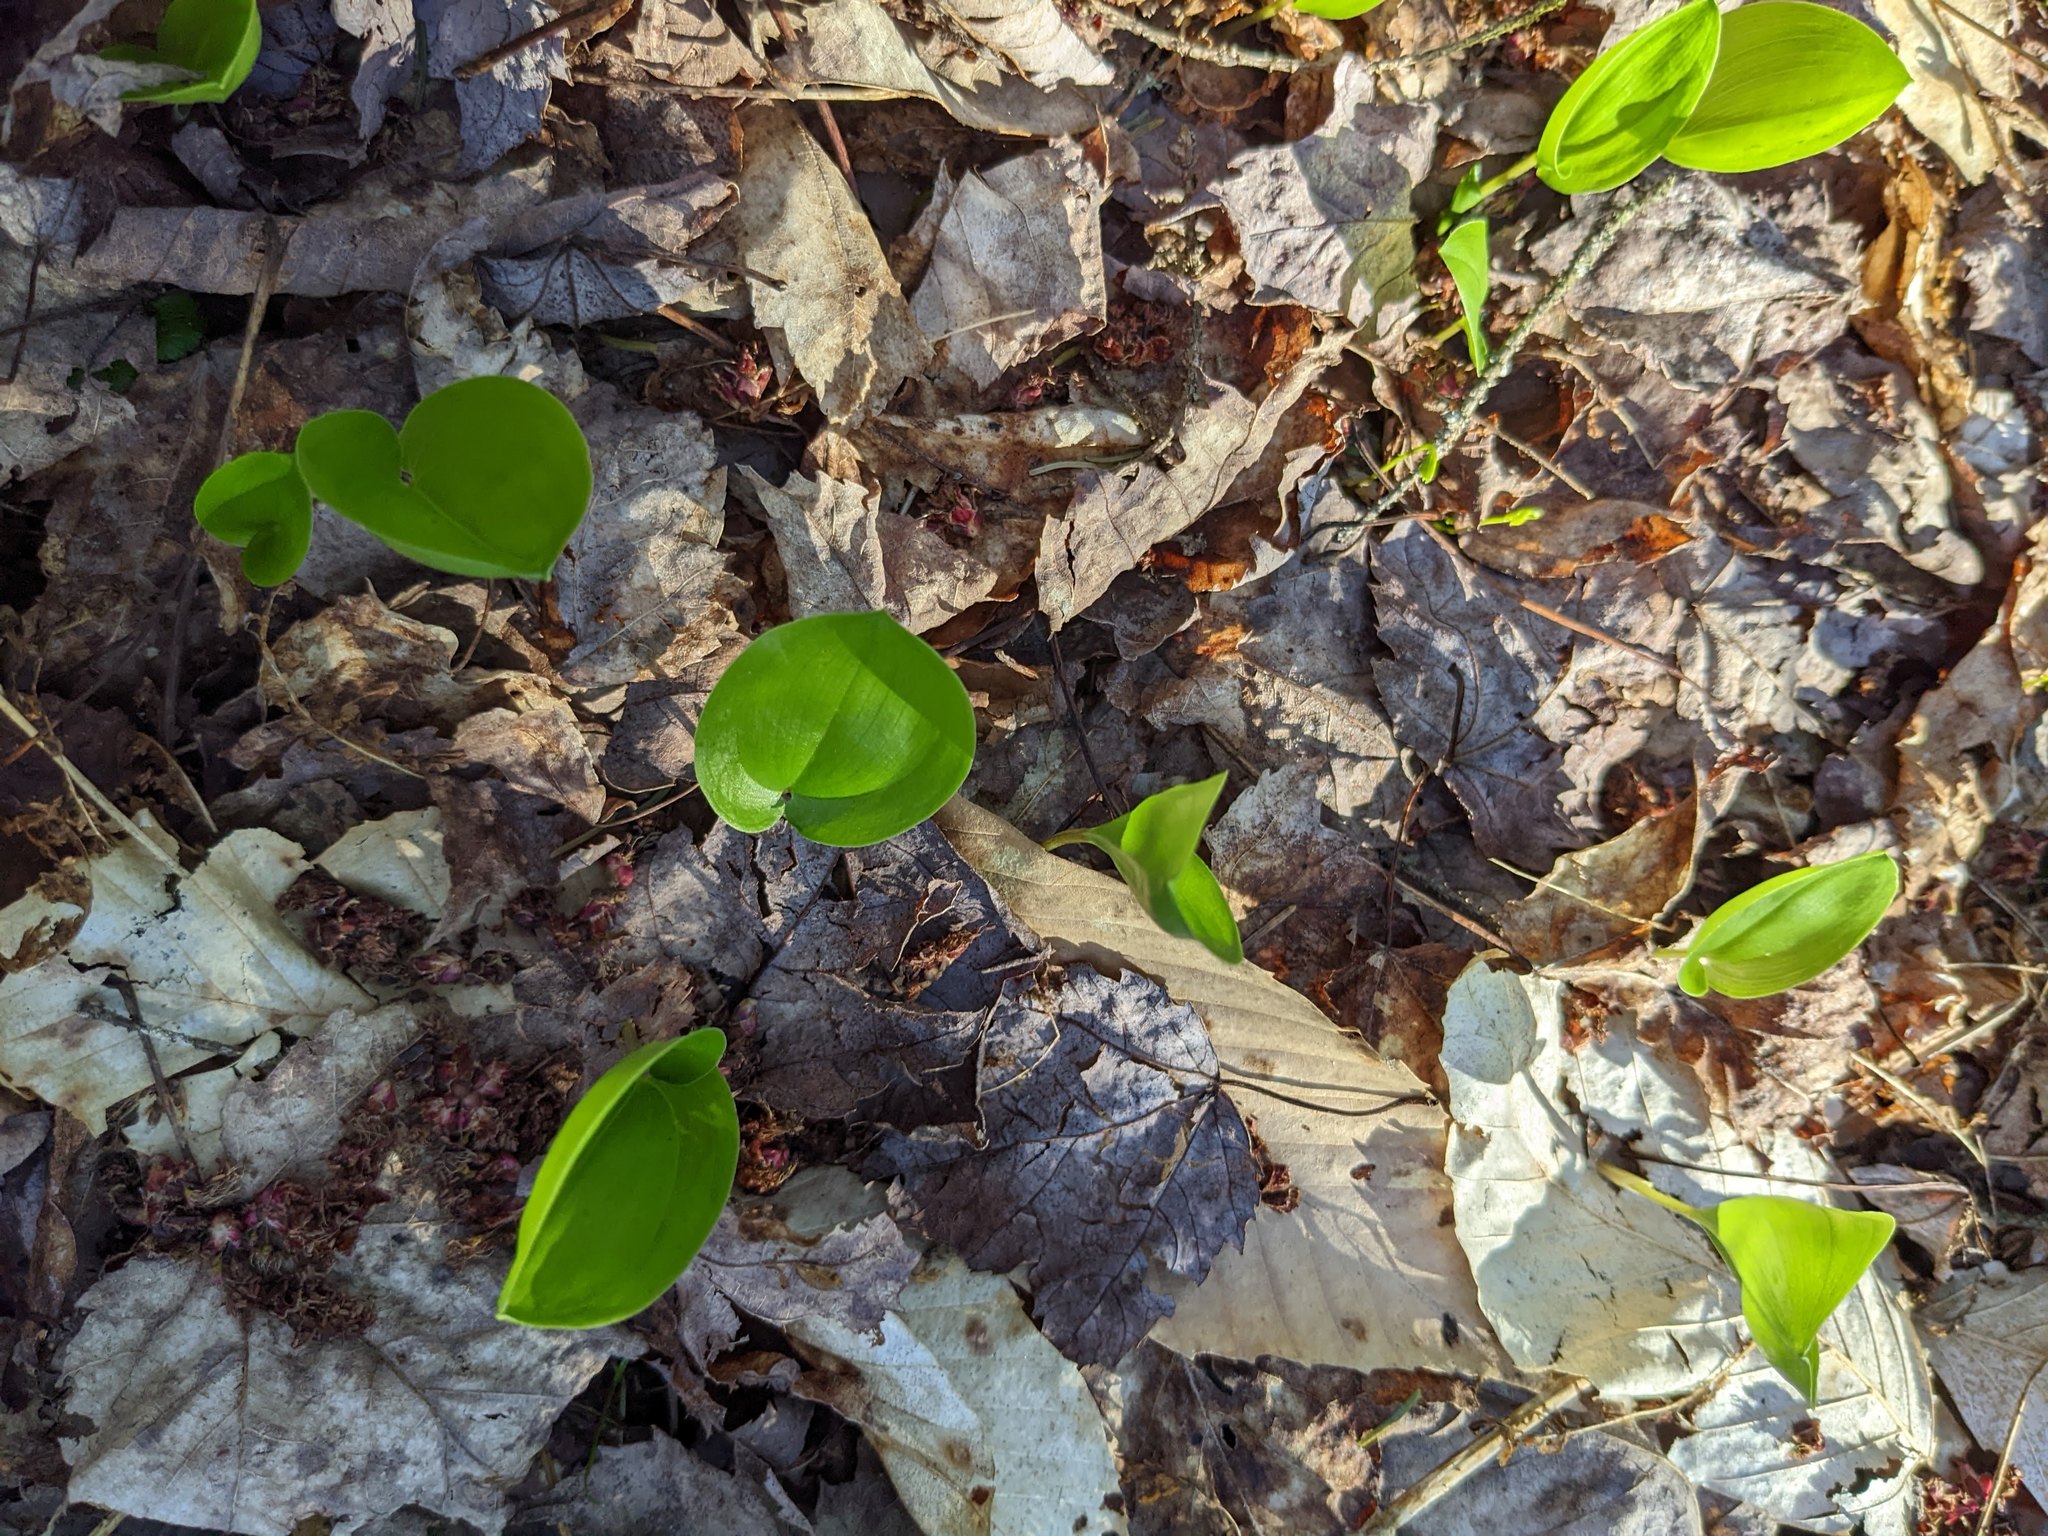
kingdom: Plantae
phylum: Tracheophyta
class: Liliopsida
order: Asparagales
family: Asparagaceae
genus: Maianthemum
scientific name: Maianthemum canadense
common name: False lily-of-the-valley
